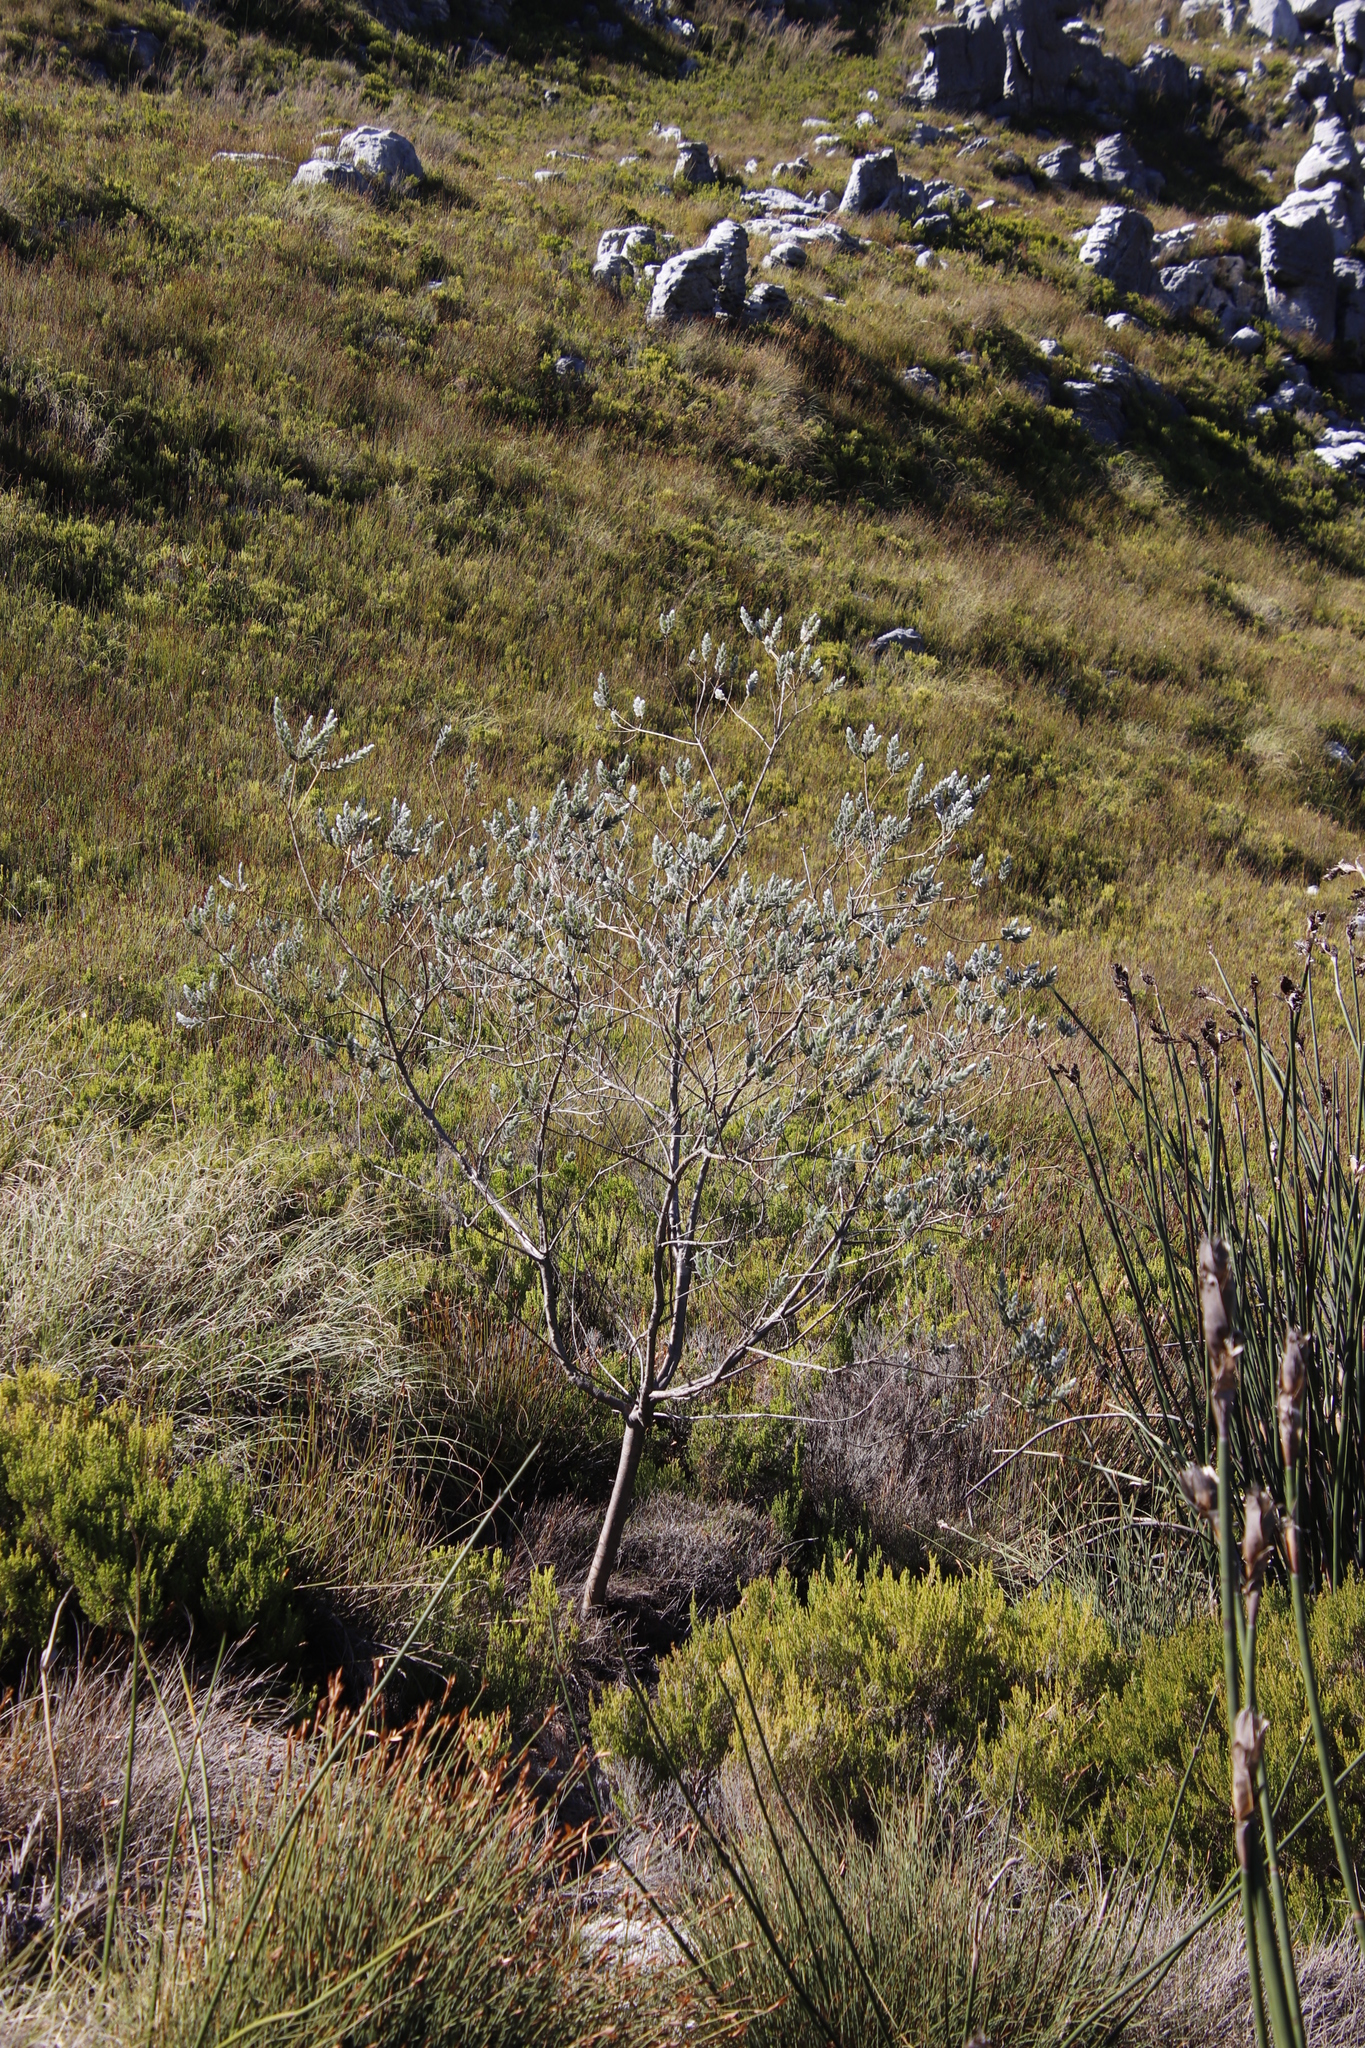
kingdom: Plantae
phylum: Tracheophyta
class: Magnoliopsida
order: Fabales
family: Fabaceae
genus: Liparia
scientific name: Liparia calycina
